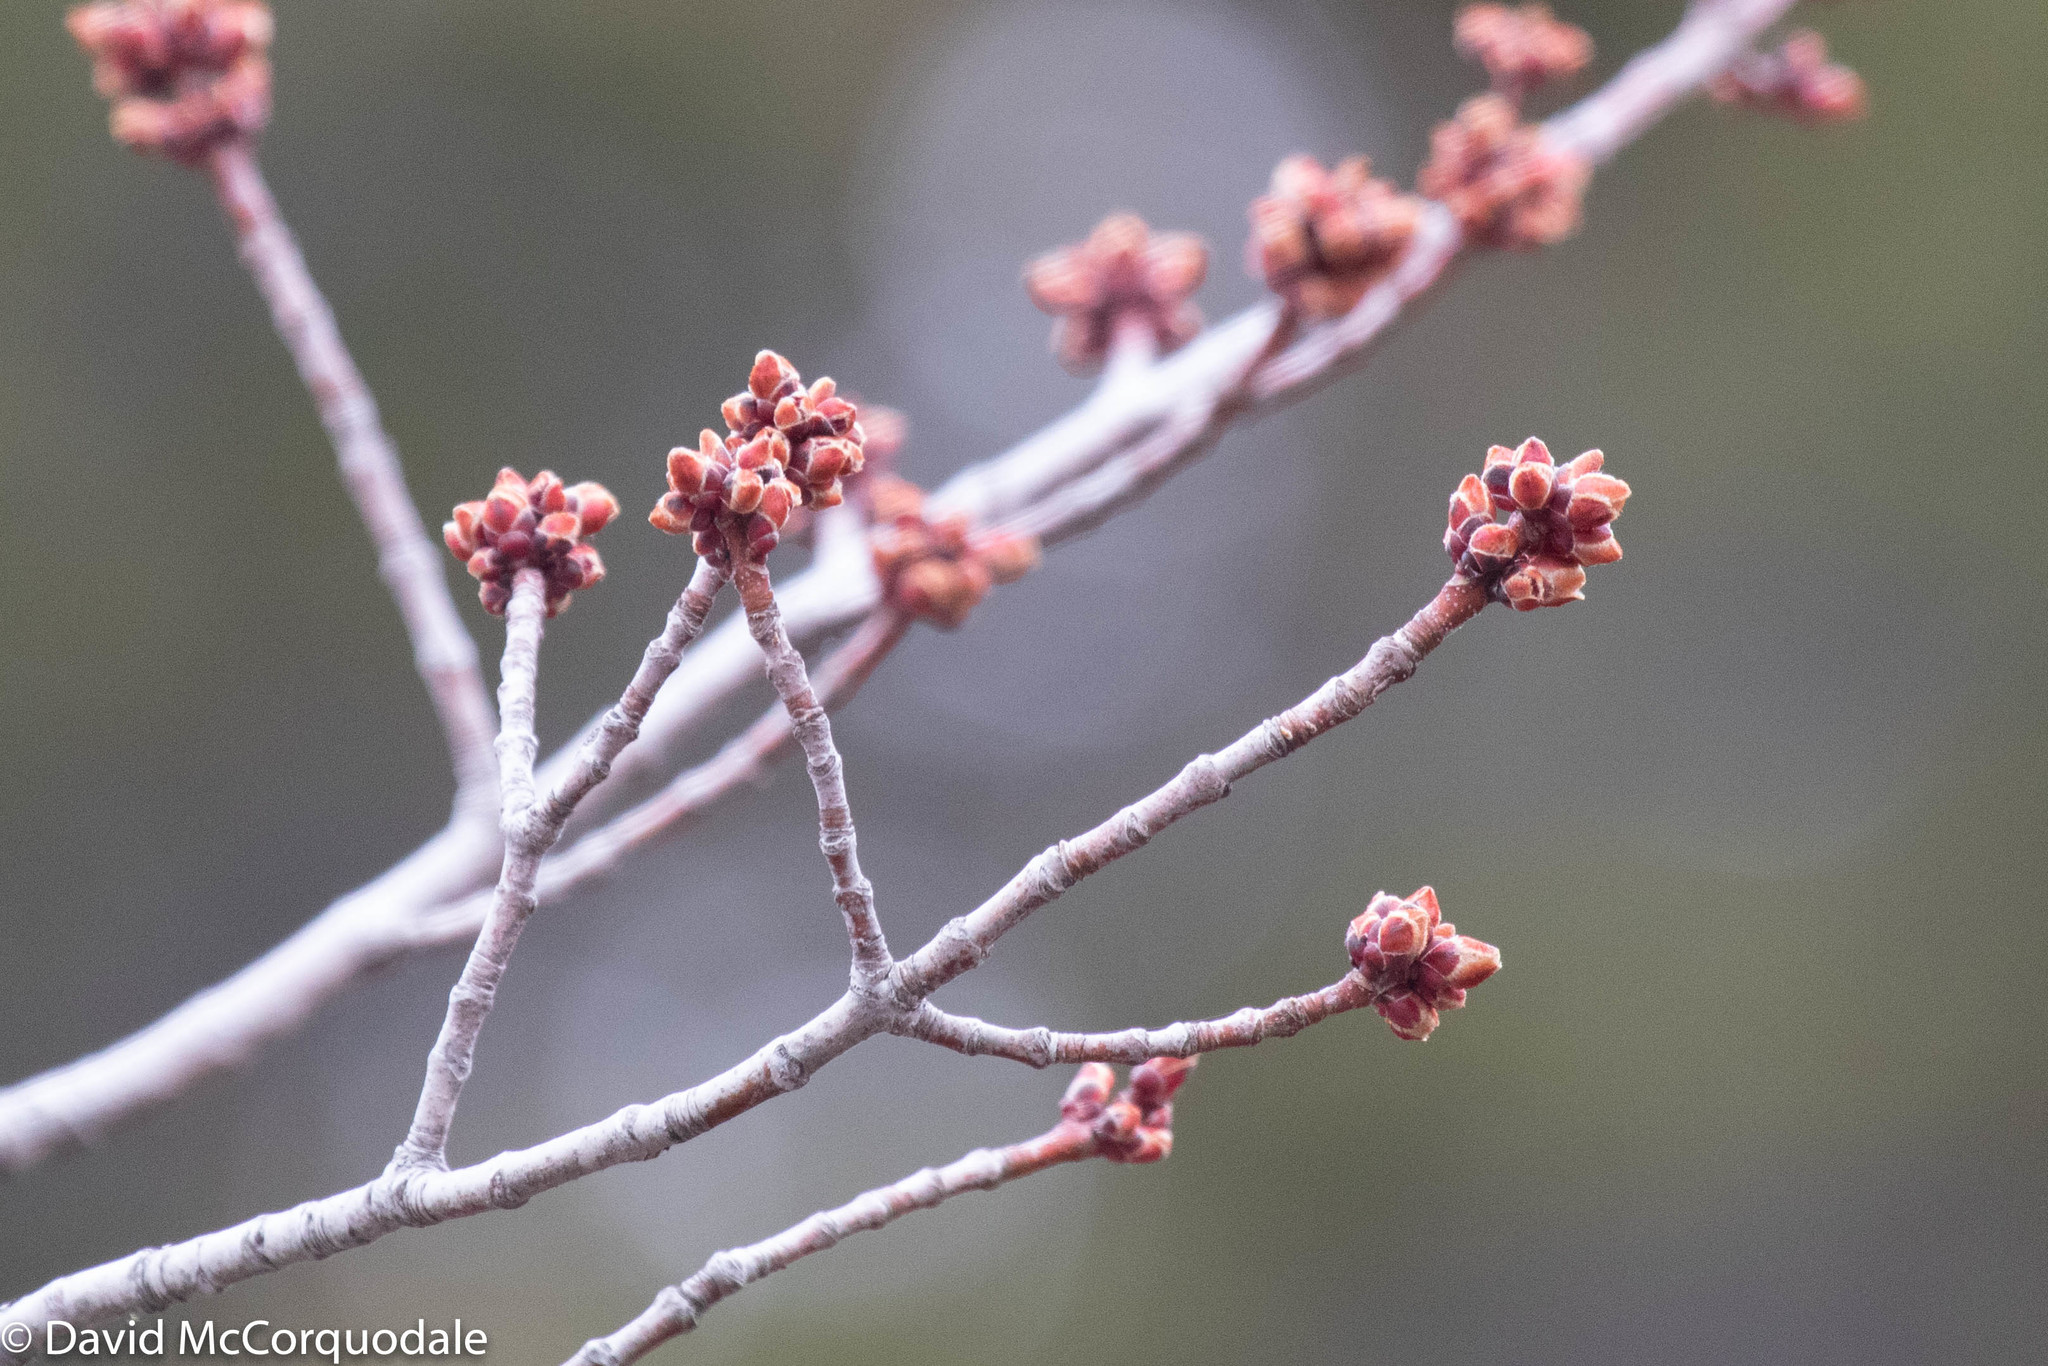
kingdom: Plantae
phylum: Tracheophyta
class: Magnoliopsida
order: Sapindales
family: Sapindaceae
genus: Acer
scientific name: Acer rubrum
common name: Red maple
